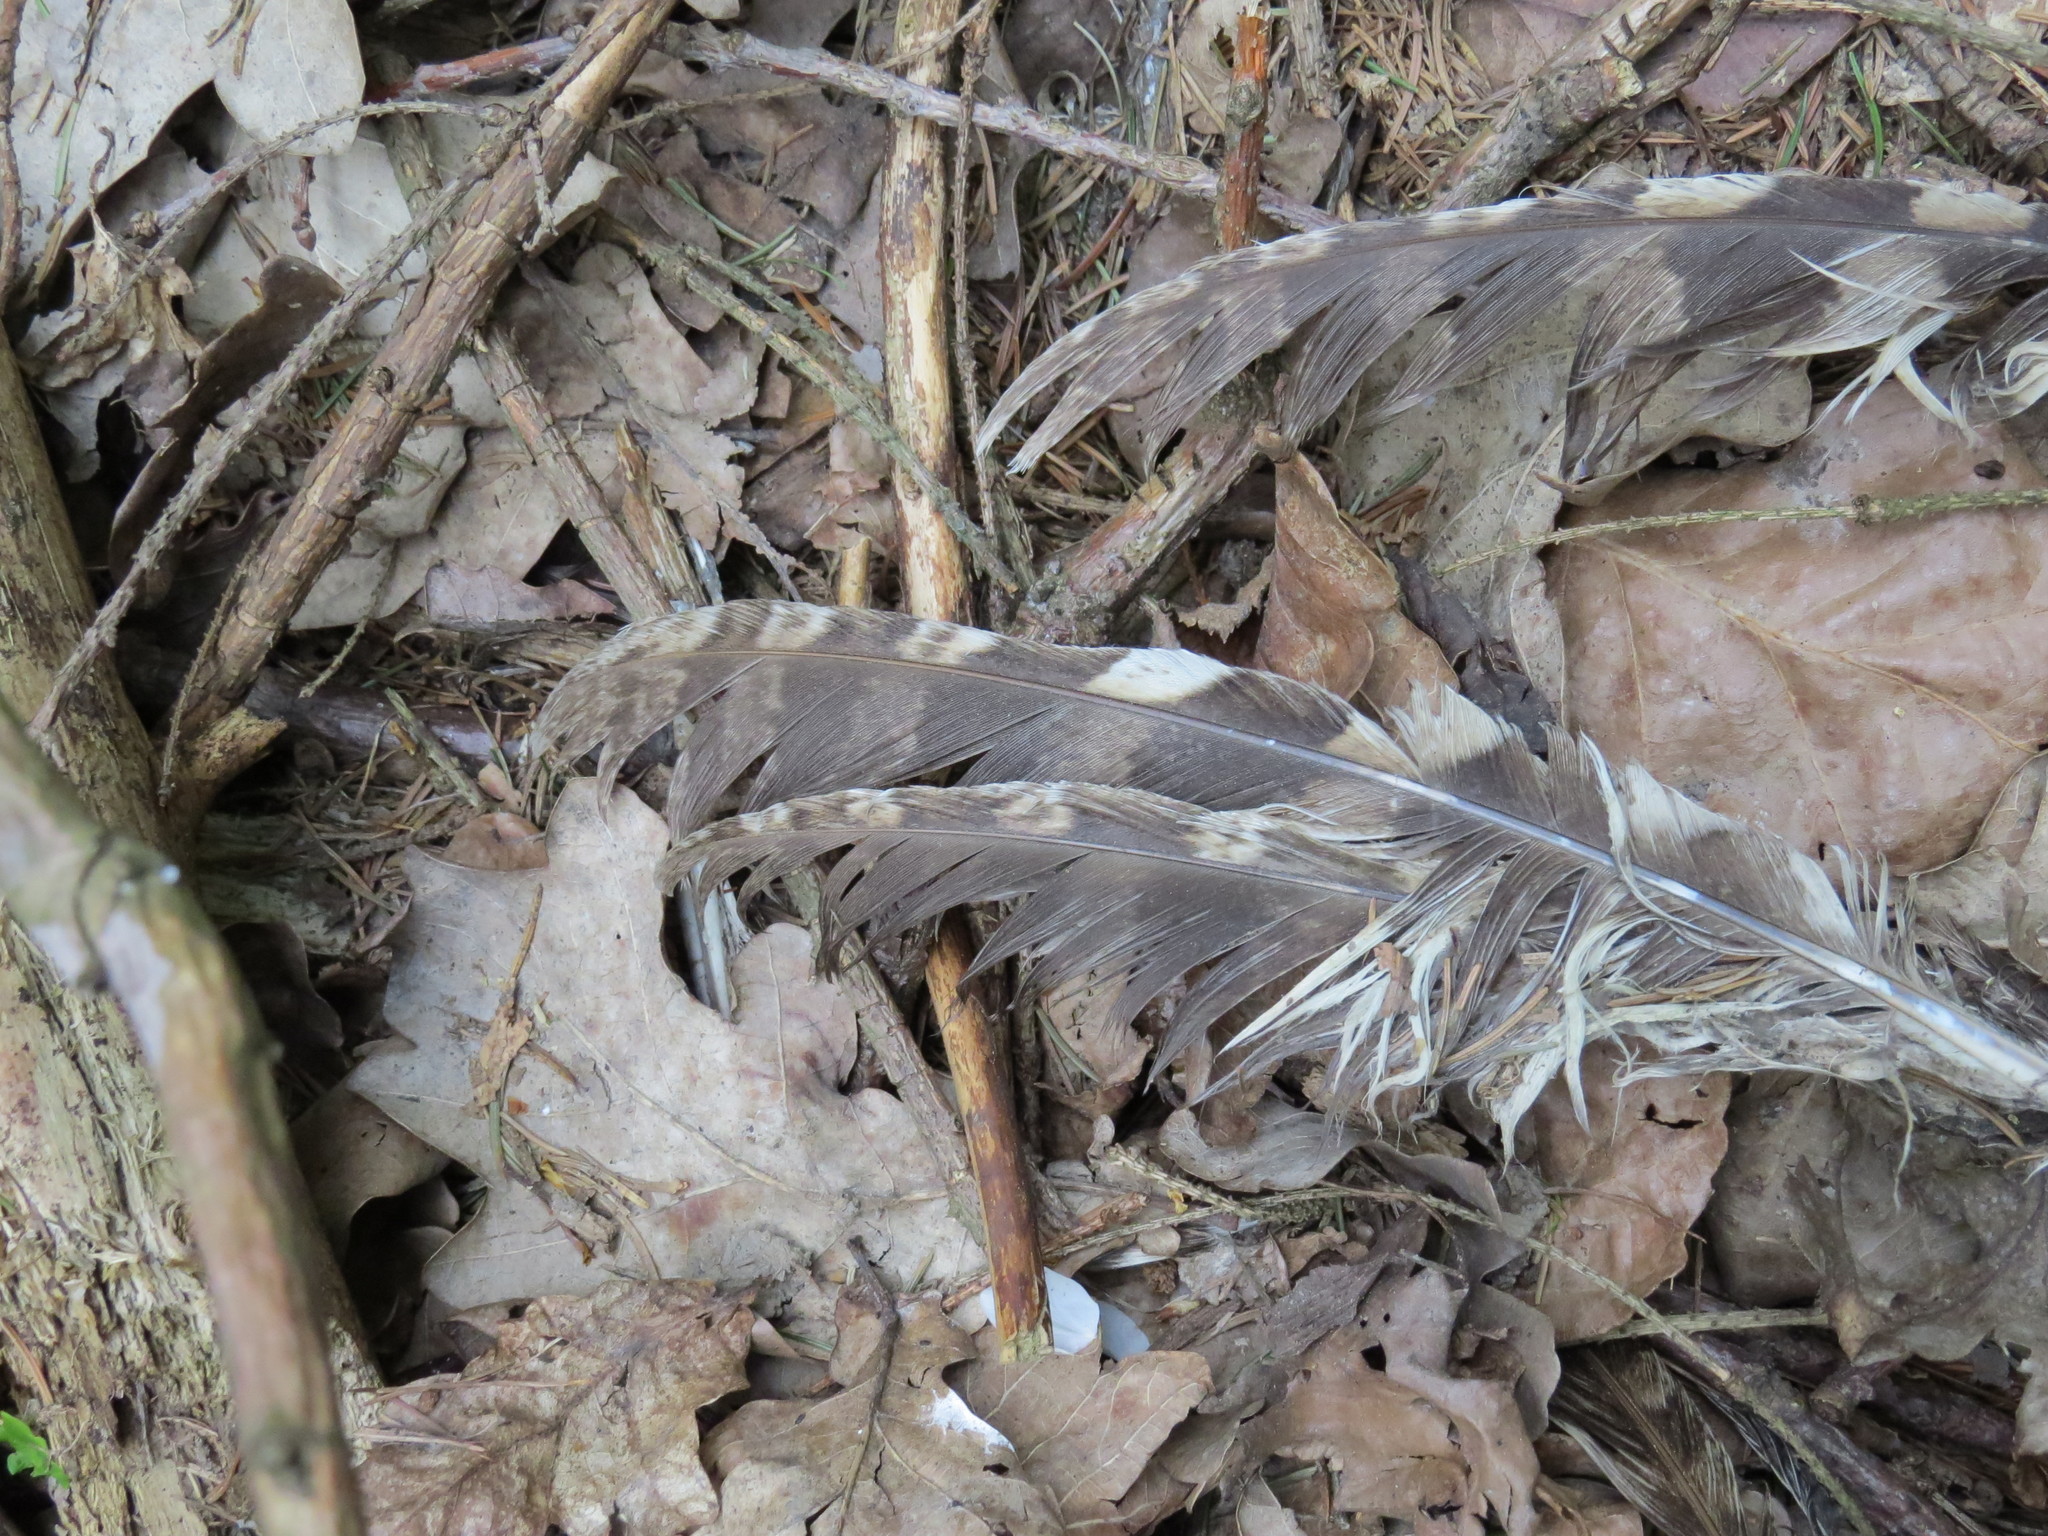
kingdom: Animalia
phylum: Chordata
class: Aves
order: Strigiformes
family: Strigidae
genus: Strix
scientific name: Strix aluco
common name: Tawny owl
